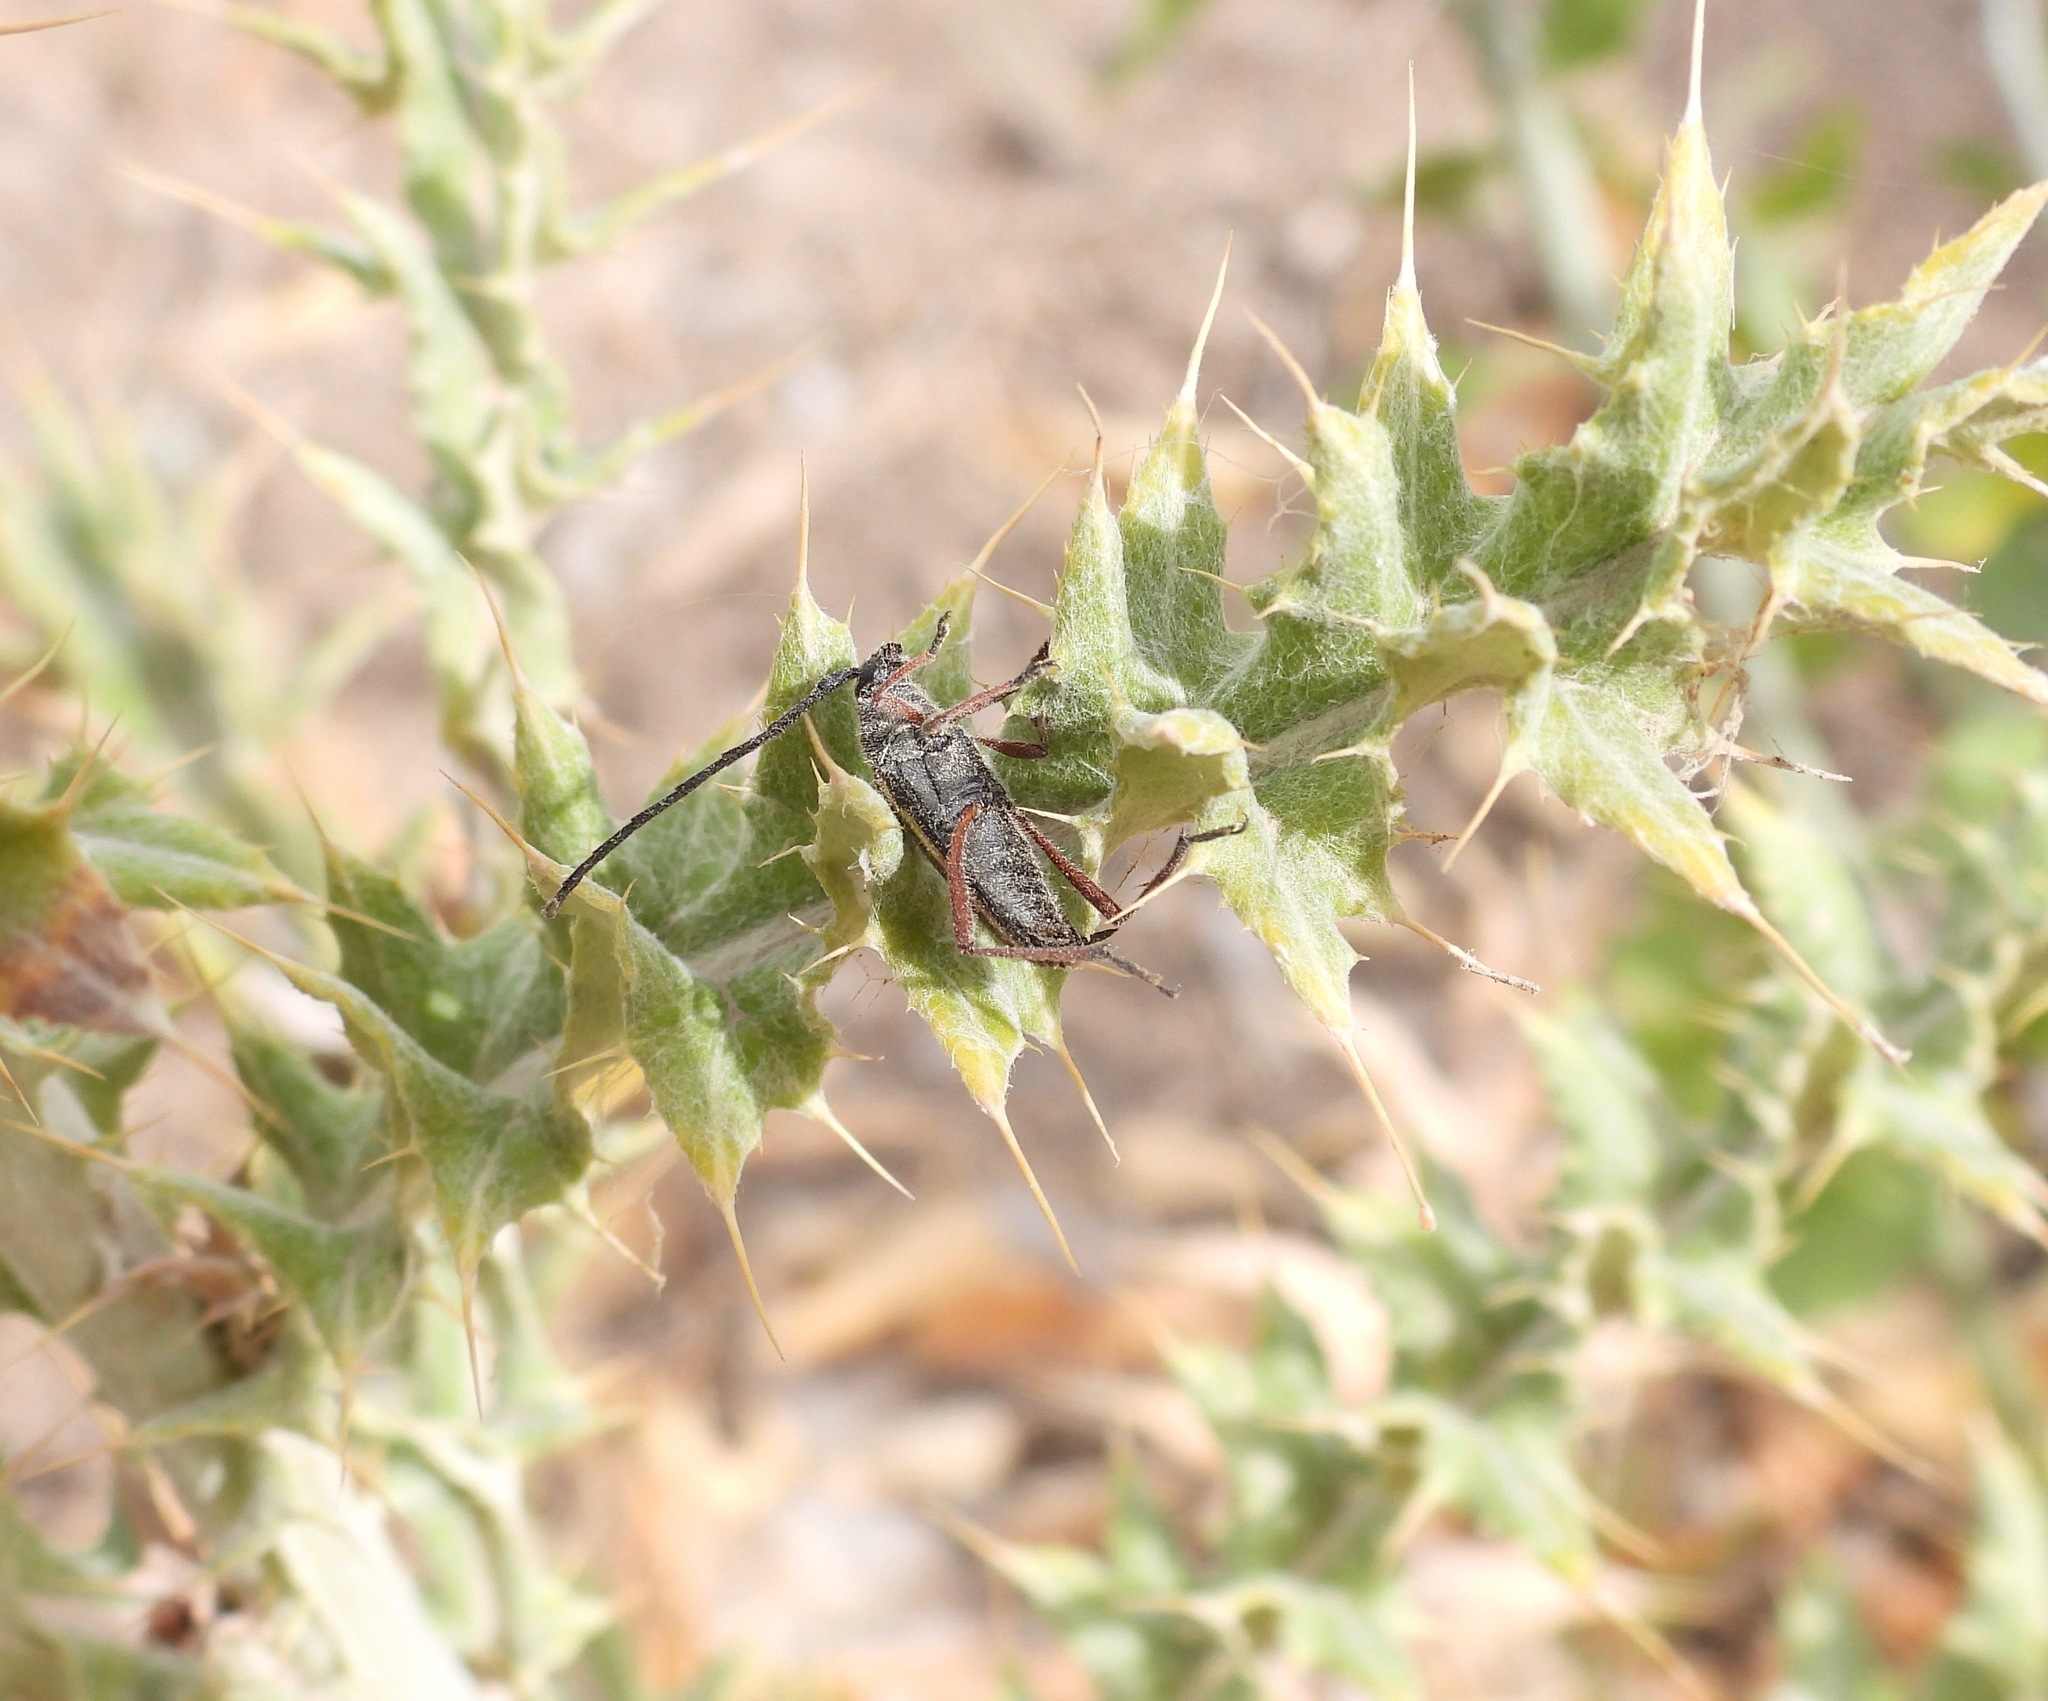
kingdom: Animalia
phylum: Arthropoda
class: Insecta
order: Coleoptera
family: Cerambycidae
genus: Sphaenothecus
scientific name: Sphaenothecus bilineatus
